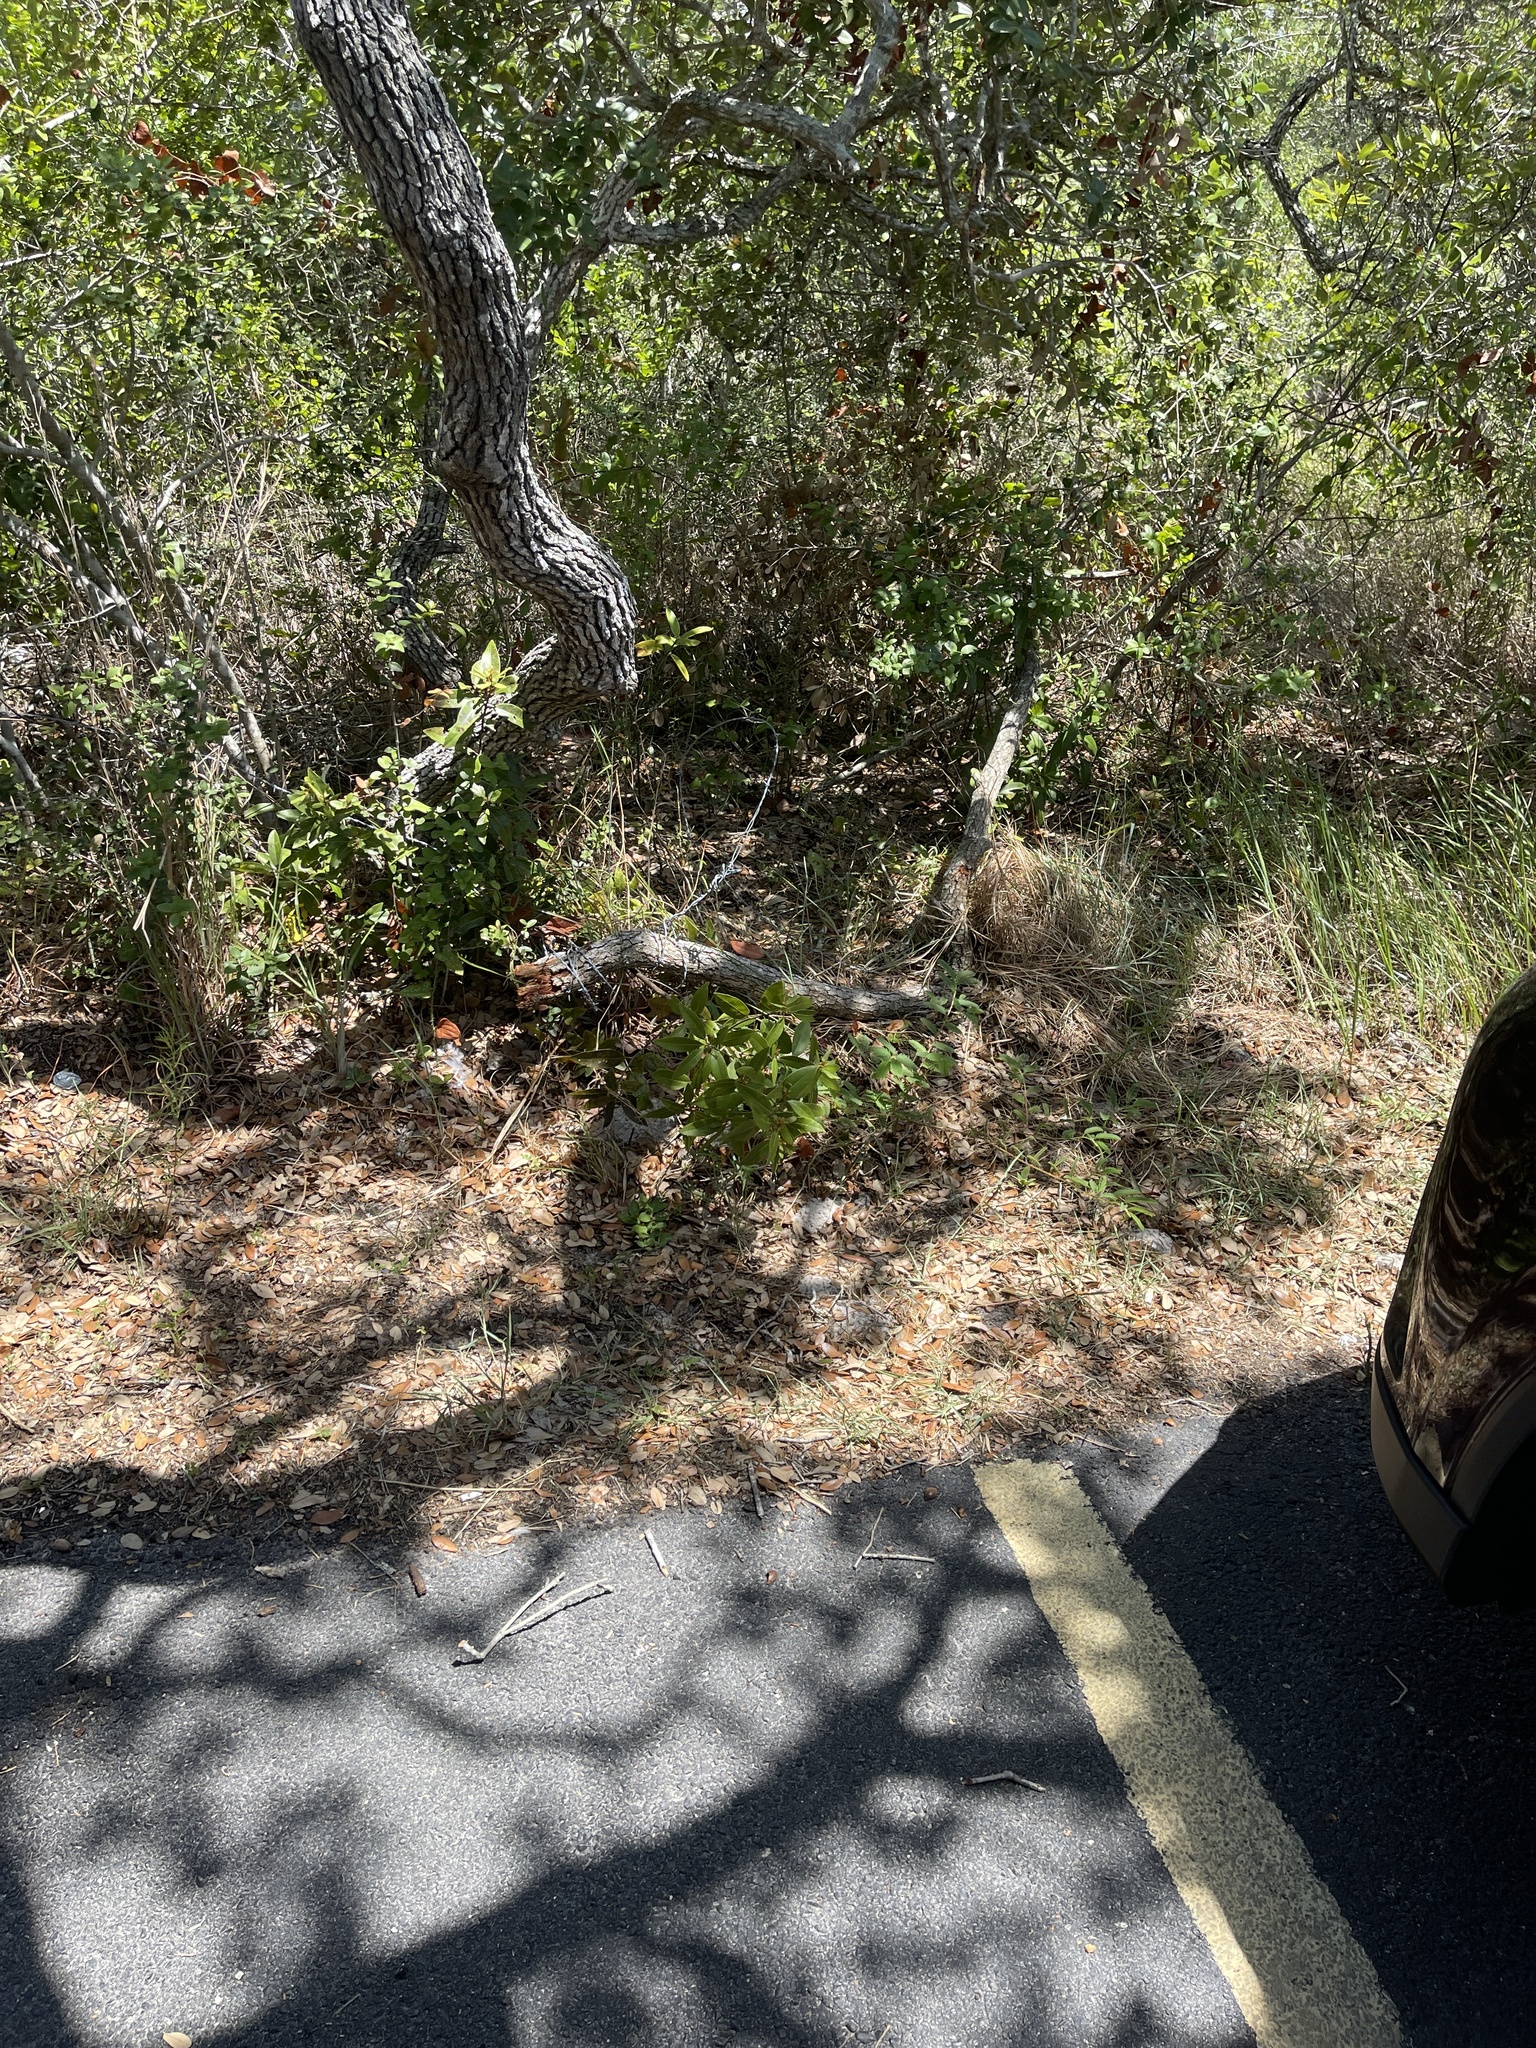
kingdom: Plantae
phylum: Tracheophyta
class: Magnoliopsida
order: Fagales
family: Fagaceae
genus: Quercus
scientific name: Quercus fusiformis
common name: Texas live oak
